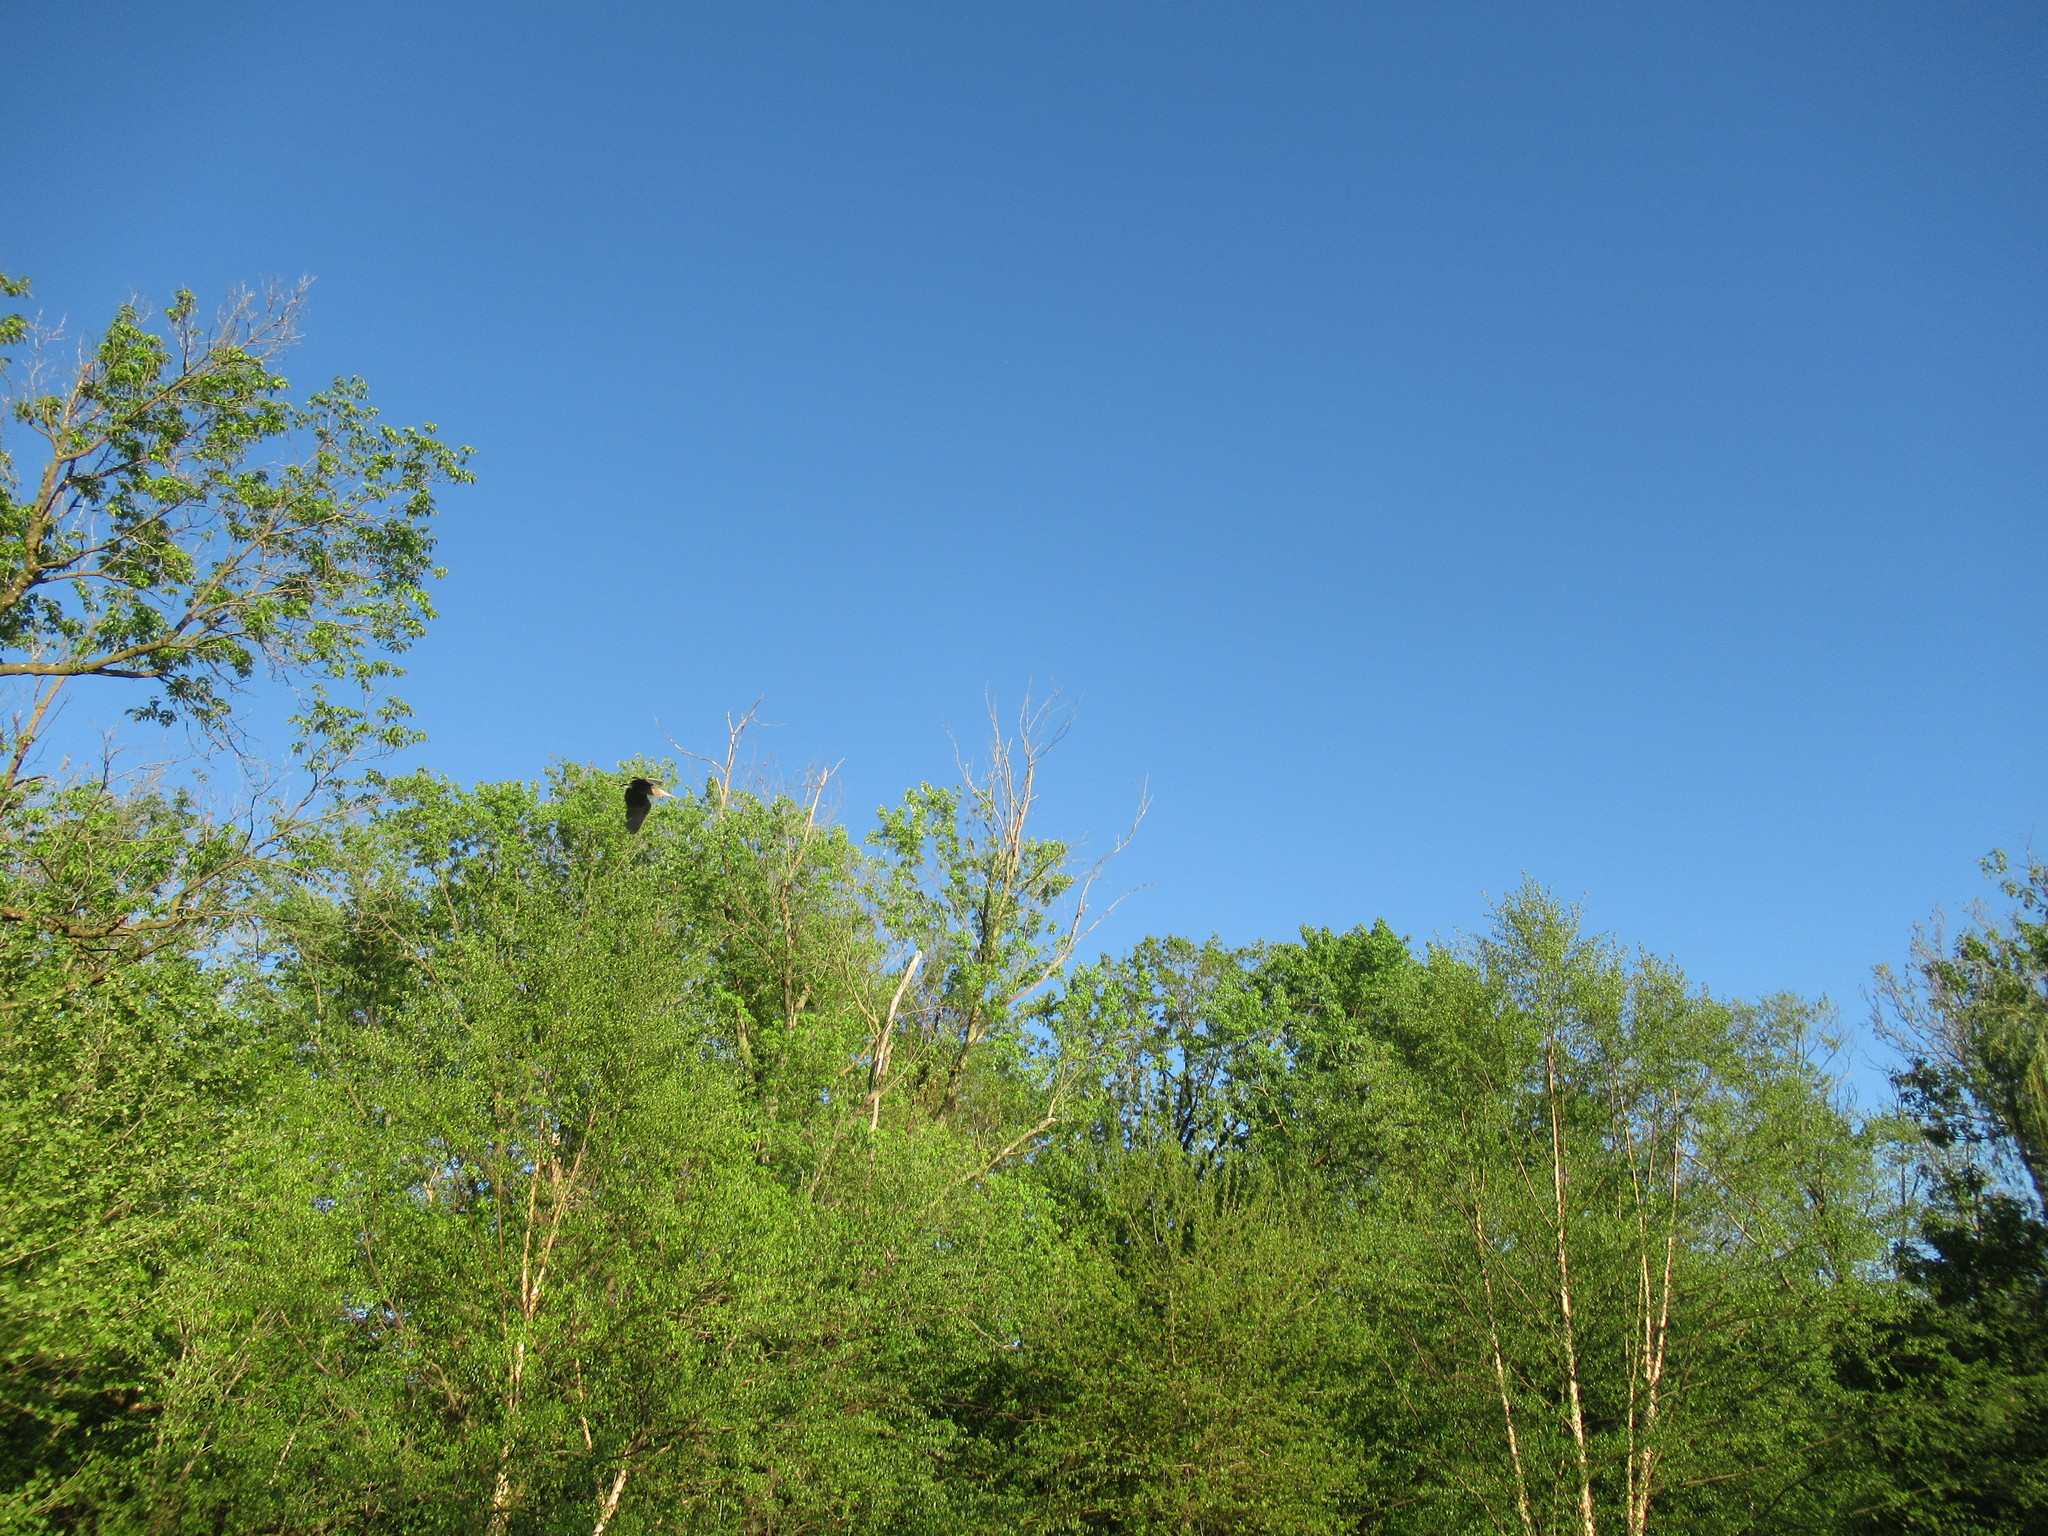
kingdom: Animalia
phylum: Chordata
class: Aves
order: Pelecaniformes
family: Ardeidae
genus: Ardea
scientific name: Ardea herodias
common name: Great blue heron
